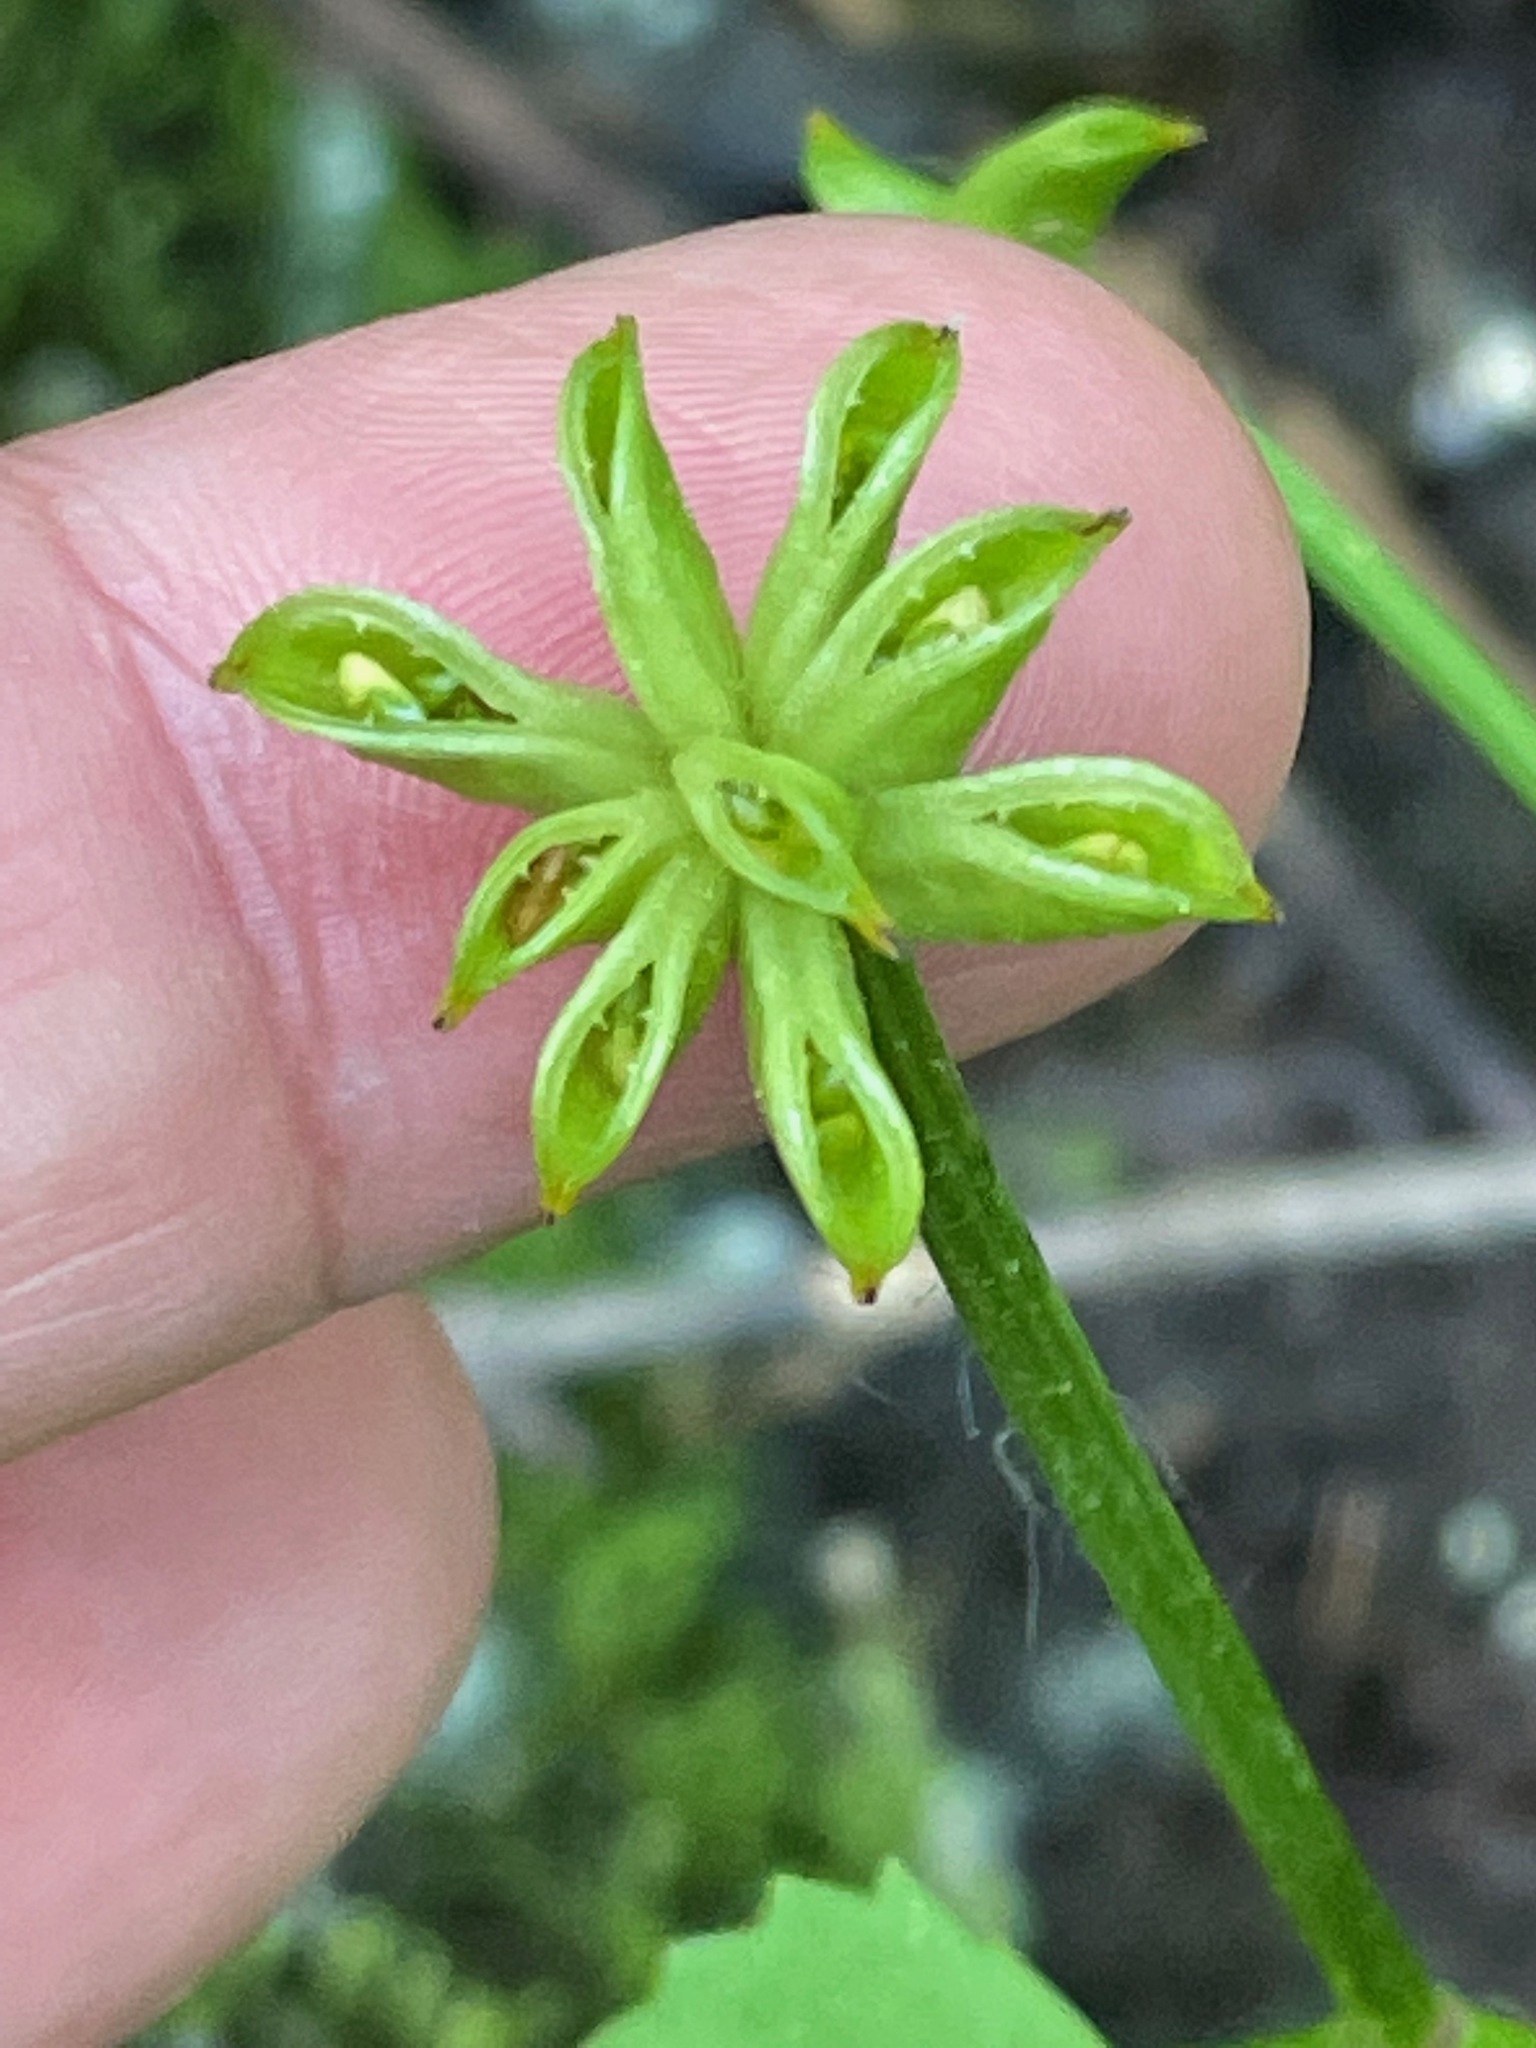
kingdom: Plantae
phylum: Tracheophyta
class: Magnoliopsida
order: Ranunculales
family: Ranunculaceae
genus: Caltha
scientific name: Caltha palustris
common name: Marsh marigold
